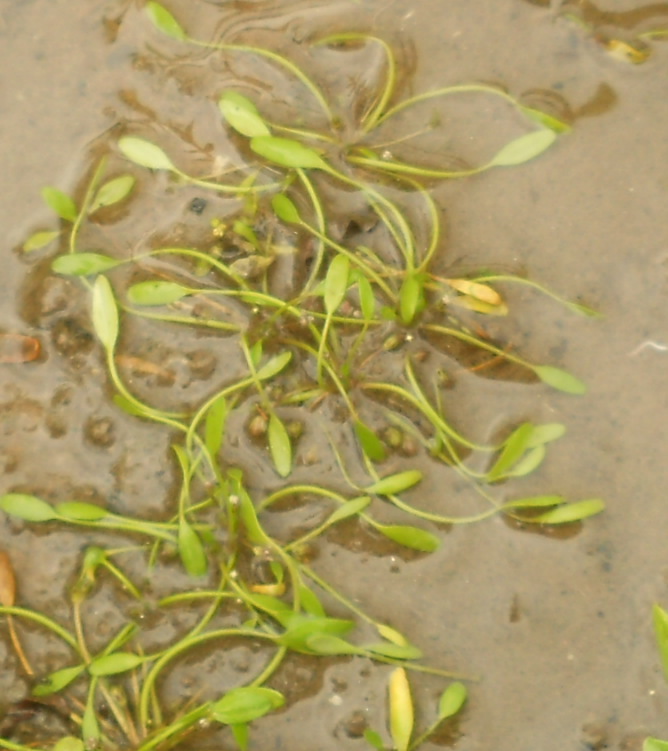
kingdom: Plantae
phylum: Tracheophyta
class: Magnoliopsida
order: Lamiales
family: Scrophulariaceae
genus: Limosella
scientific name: Limosella aquatica
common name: Mudwort
